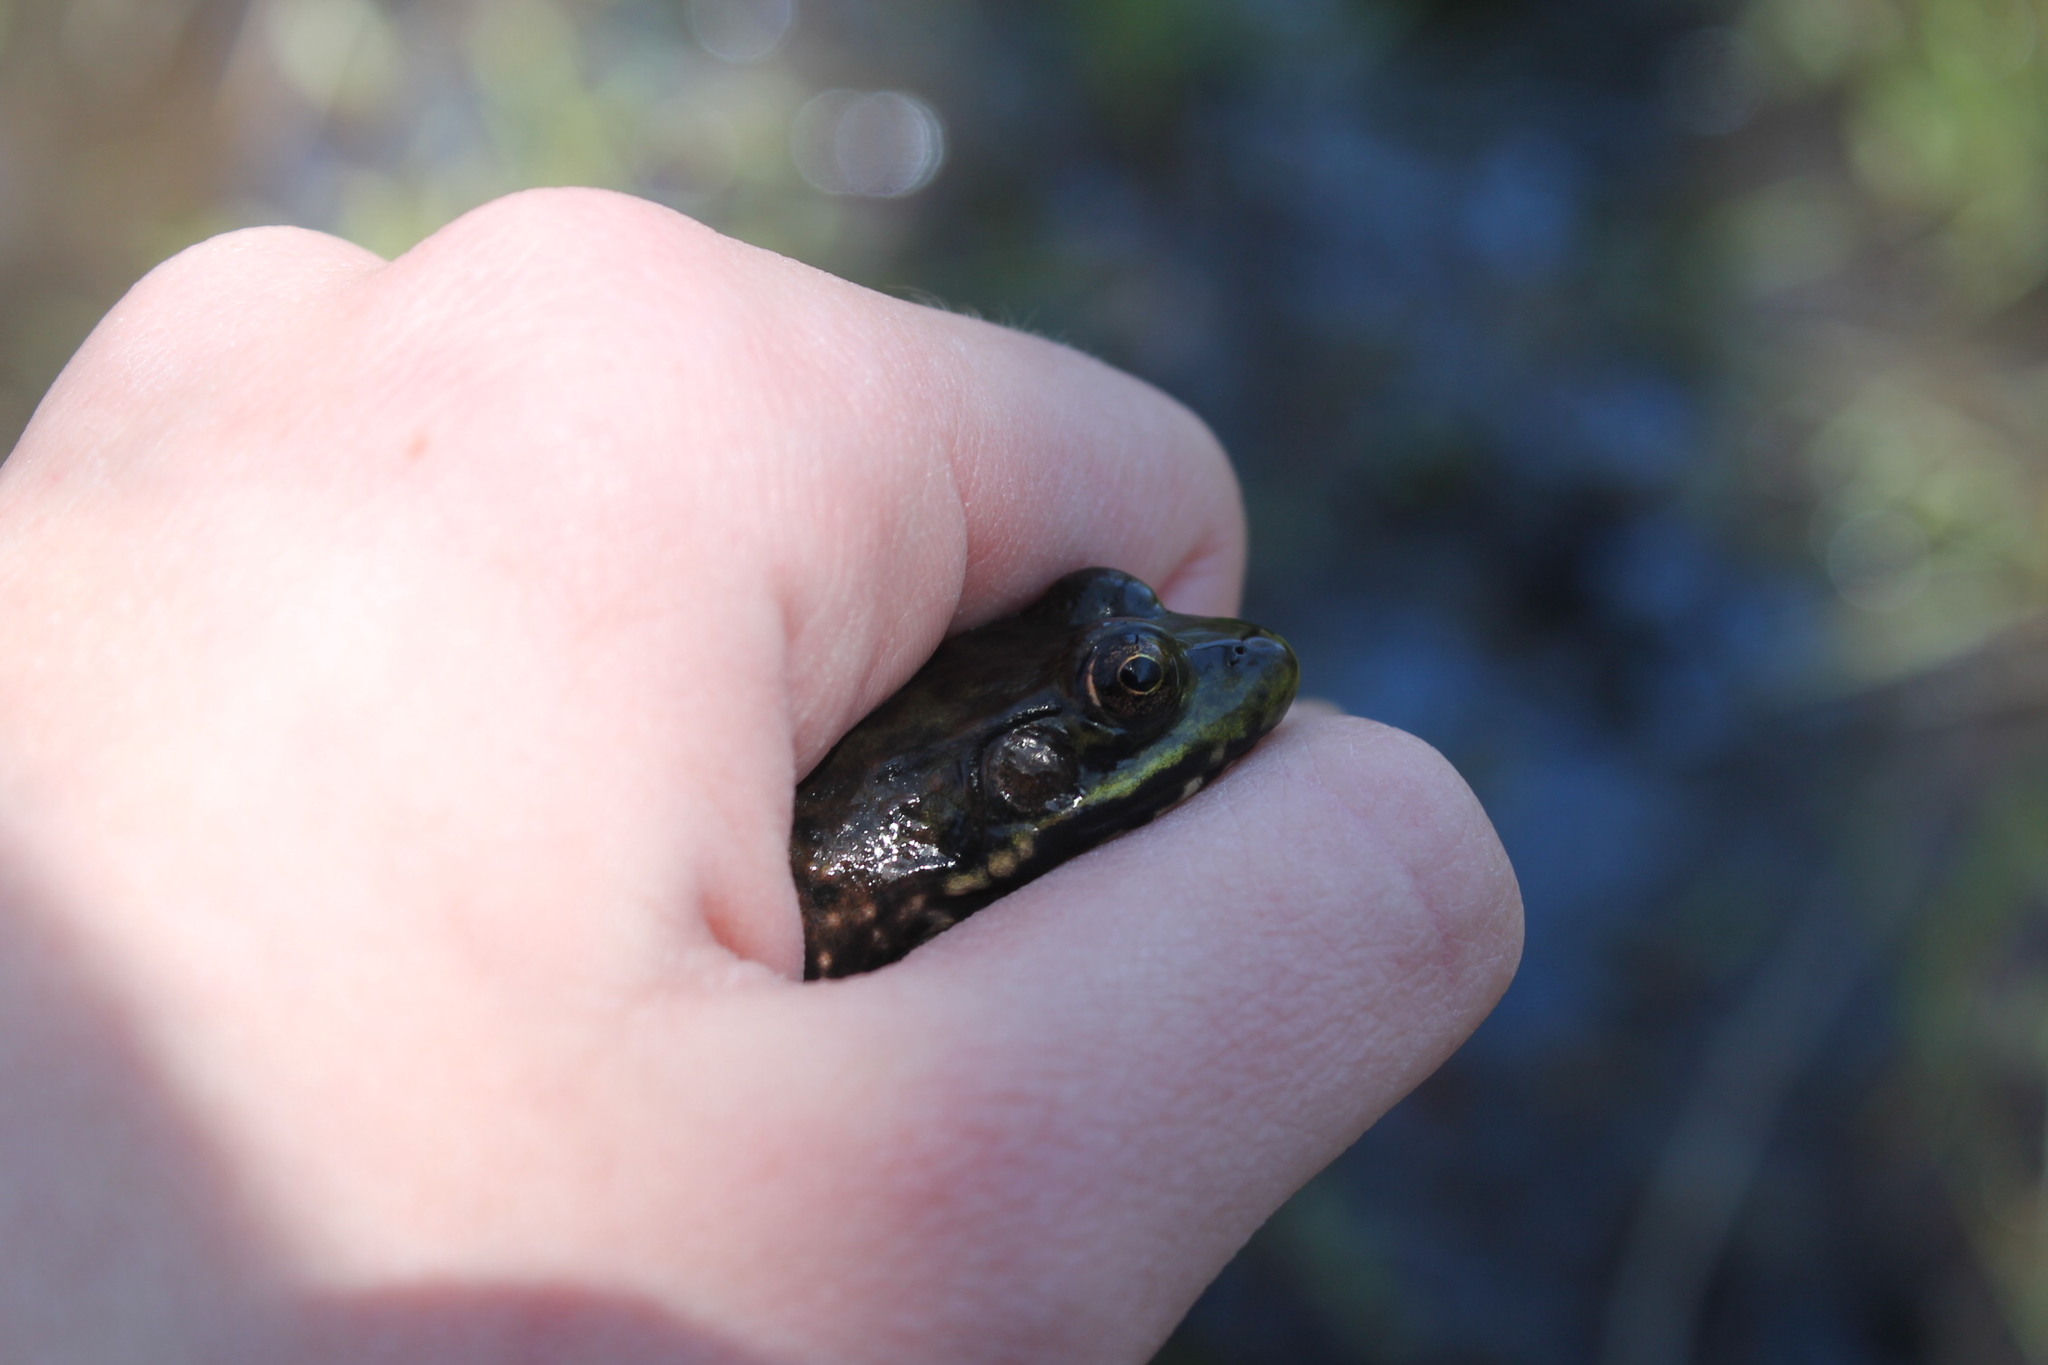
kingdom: Animalia
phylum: Chordata
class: Amphibia
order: Anura
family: Ranidae
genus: Lithobates
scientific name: Lithobates clamitans
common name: Green frog
